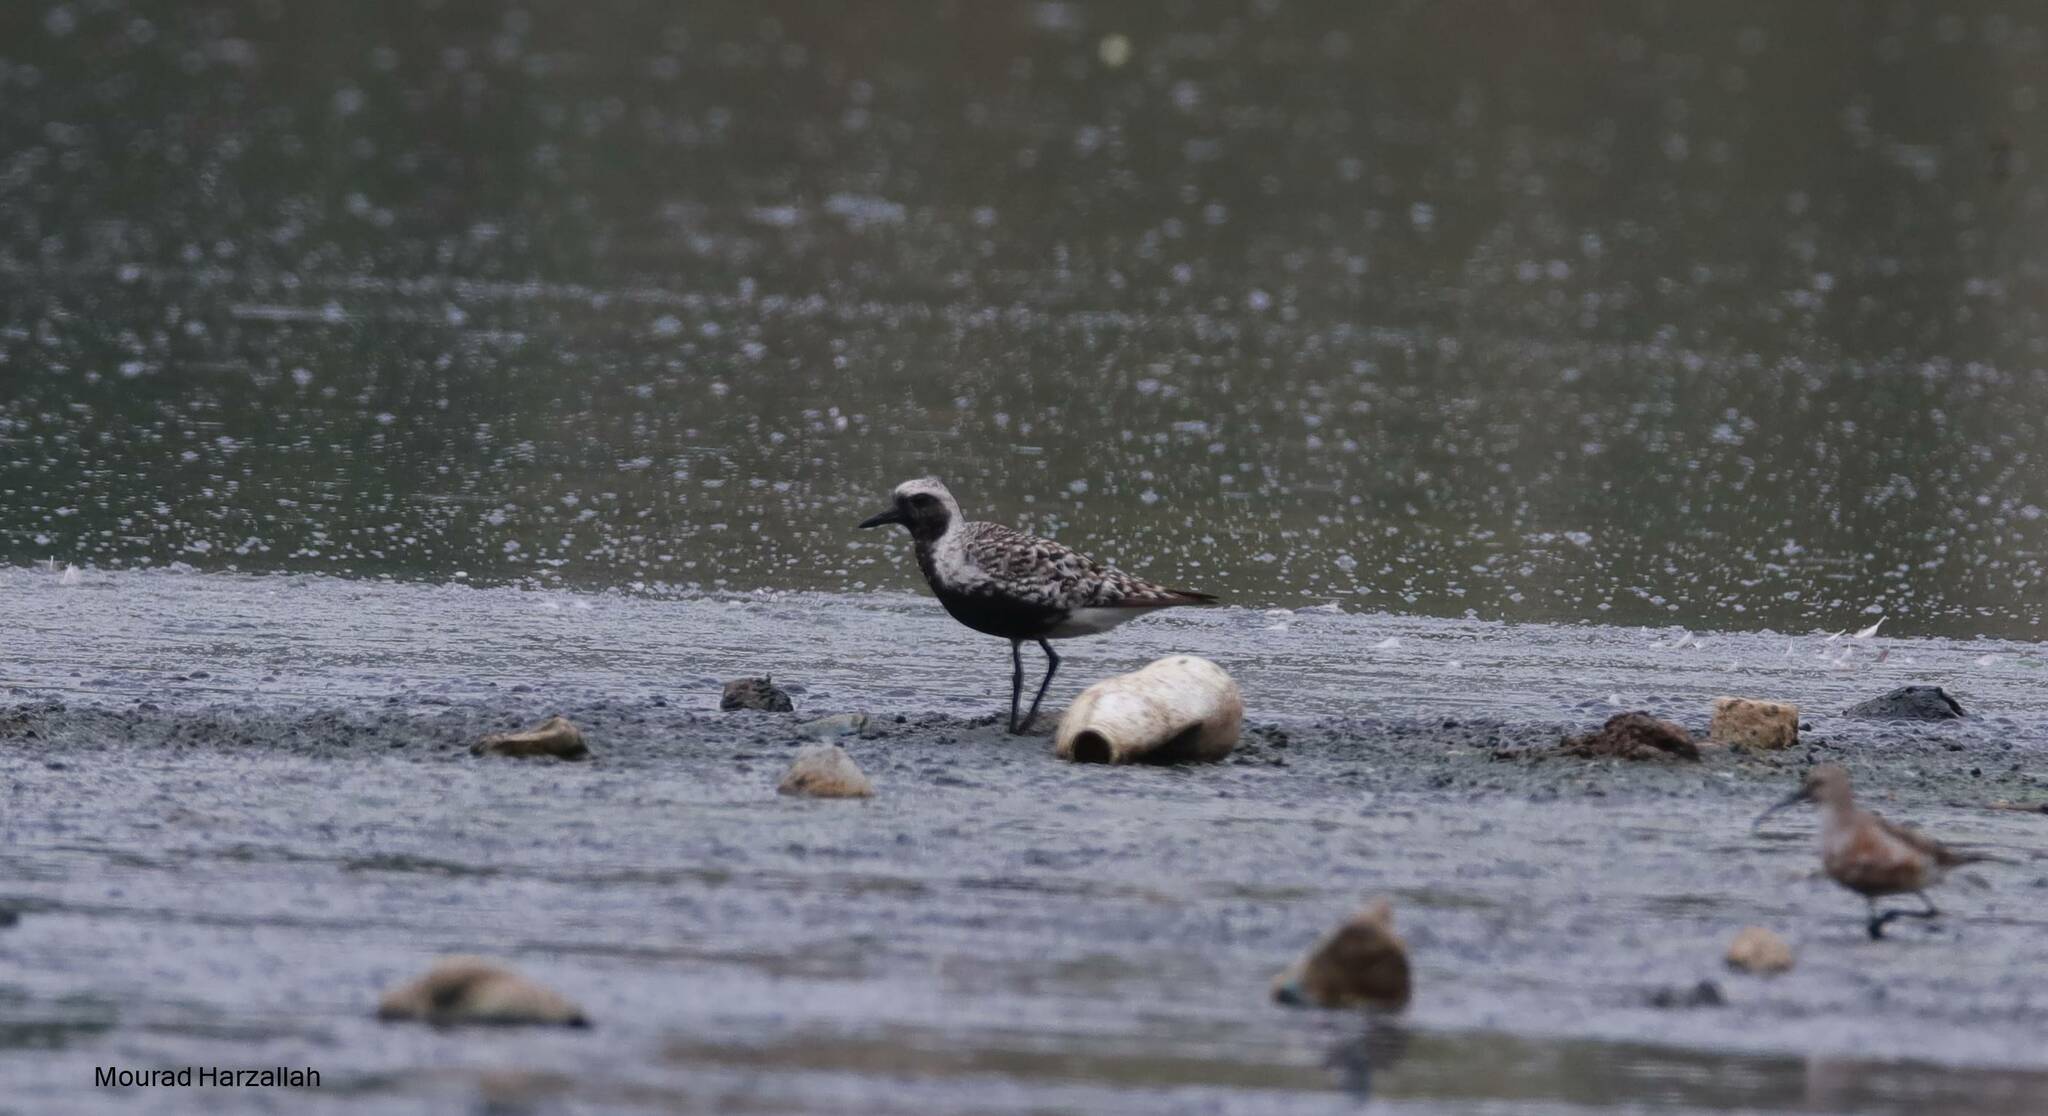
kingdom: Animalia
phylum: Chordata
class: Aves
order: Charadriiformes
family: Charadriidae
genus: Pluvialis
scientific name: Pluvialis squatarola
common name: Grey plover
